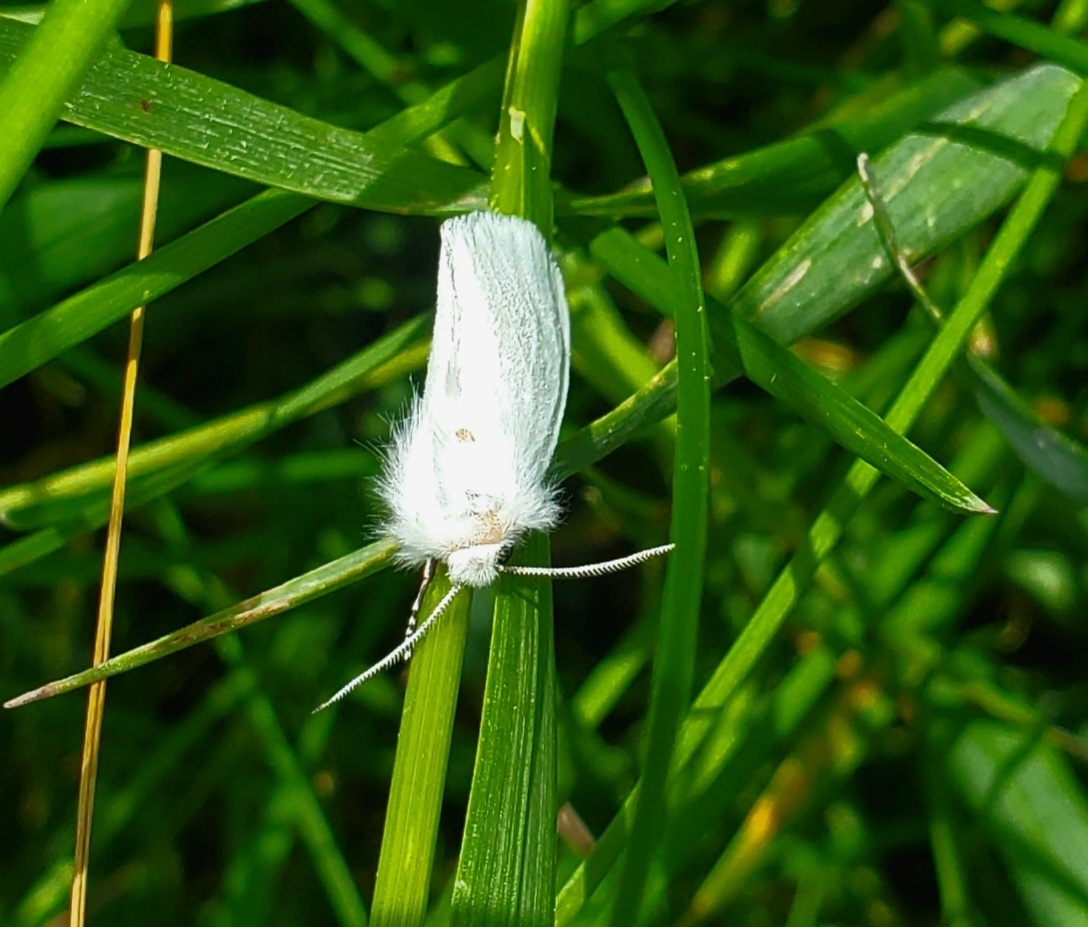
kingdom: Animalia
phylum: Arthropoda
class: Insecta
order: Lepidoptera
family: Erebidae
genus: Spilosoma
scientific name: Spilosoma virginica
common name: Virginia tiger moth
